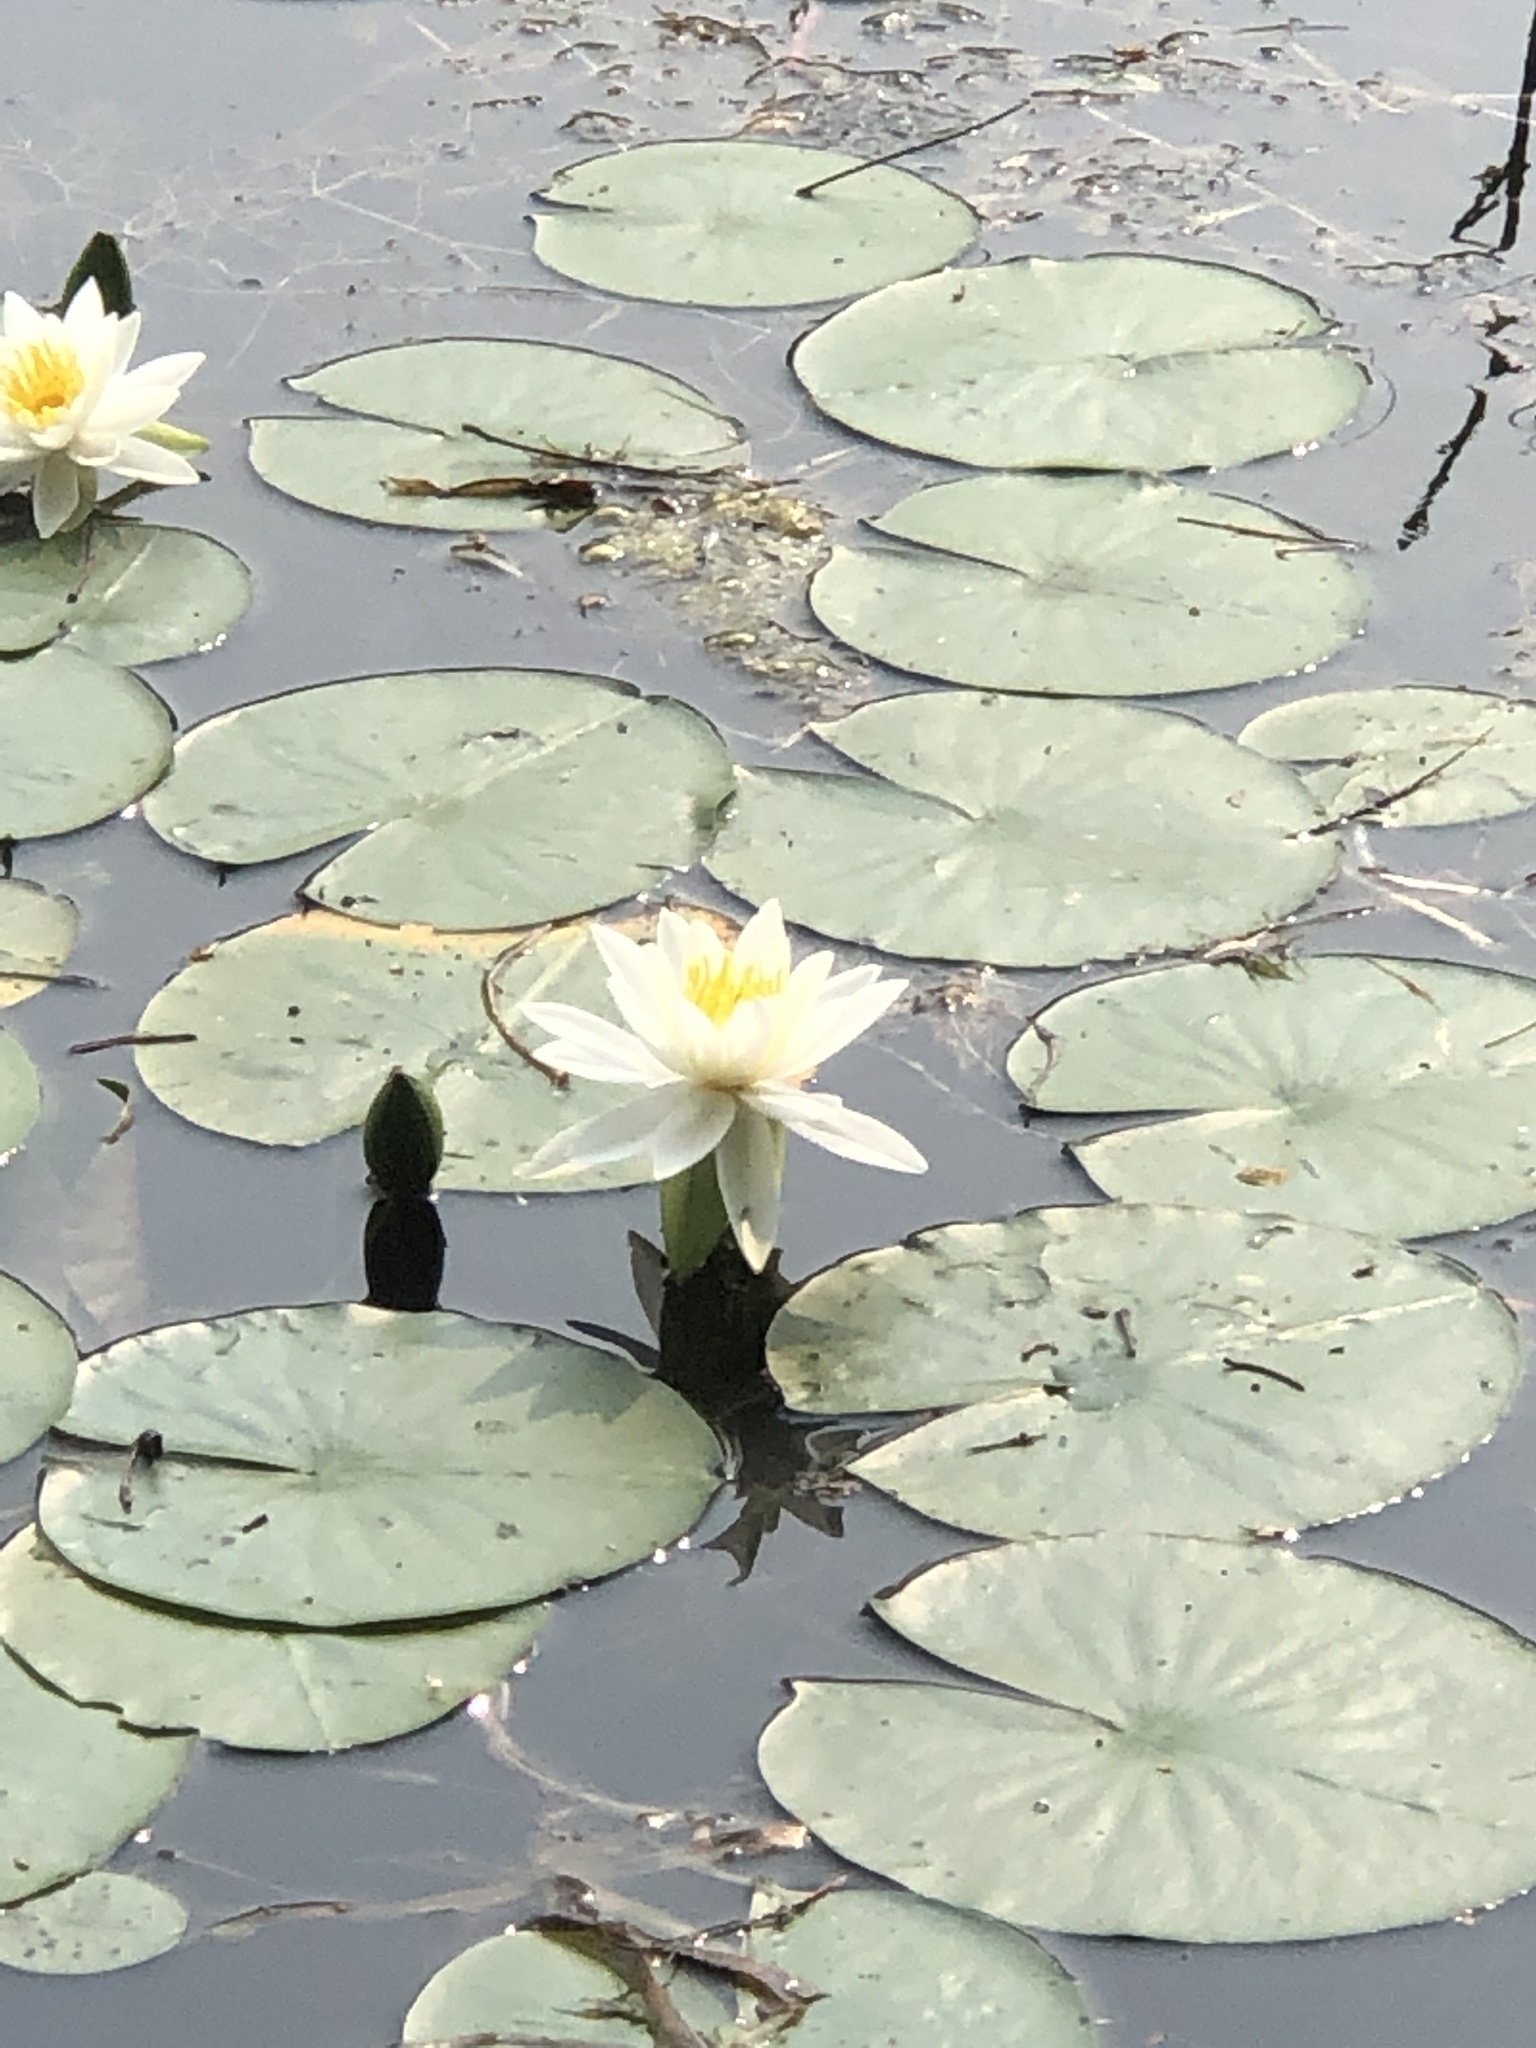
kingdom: Plantae
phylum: Tracheophyta
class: Magnoliopsida
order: Nymphaeales
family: Nymphaeaceae
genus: Nymphaea
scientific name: Nymphaea odorata
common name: Fragrant water-lily
